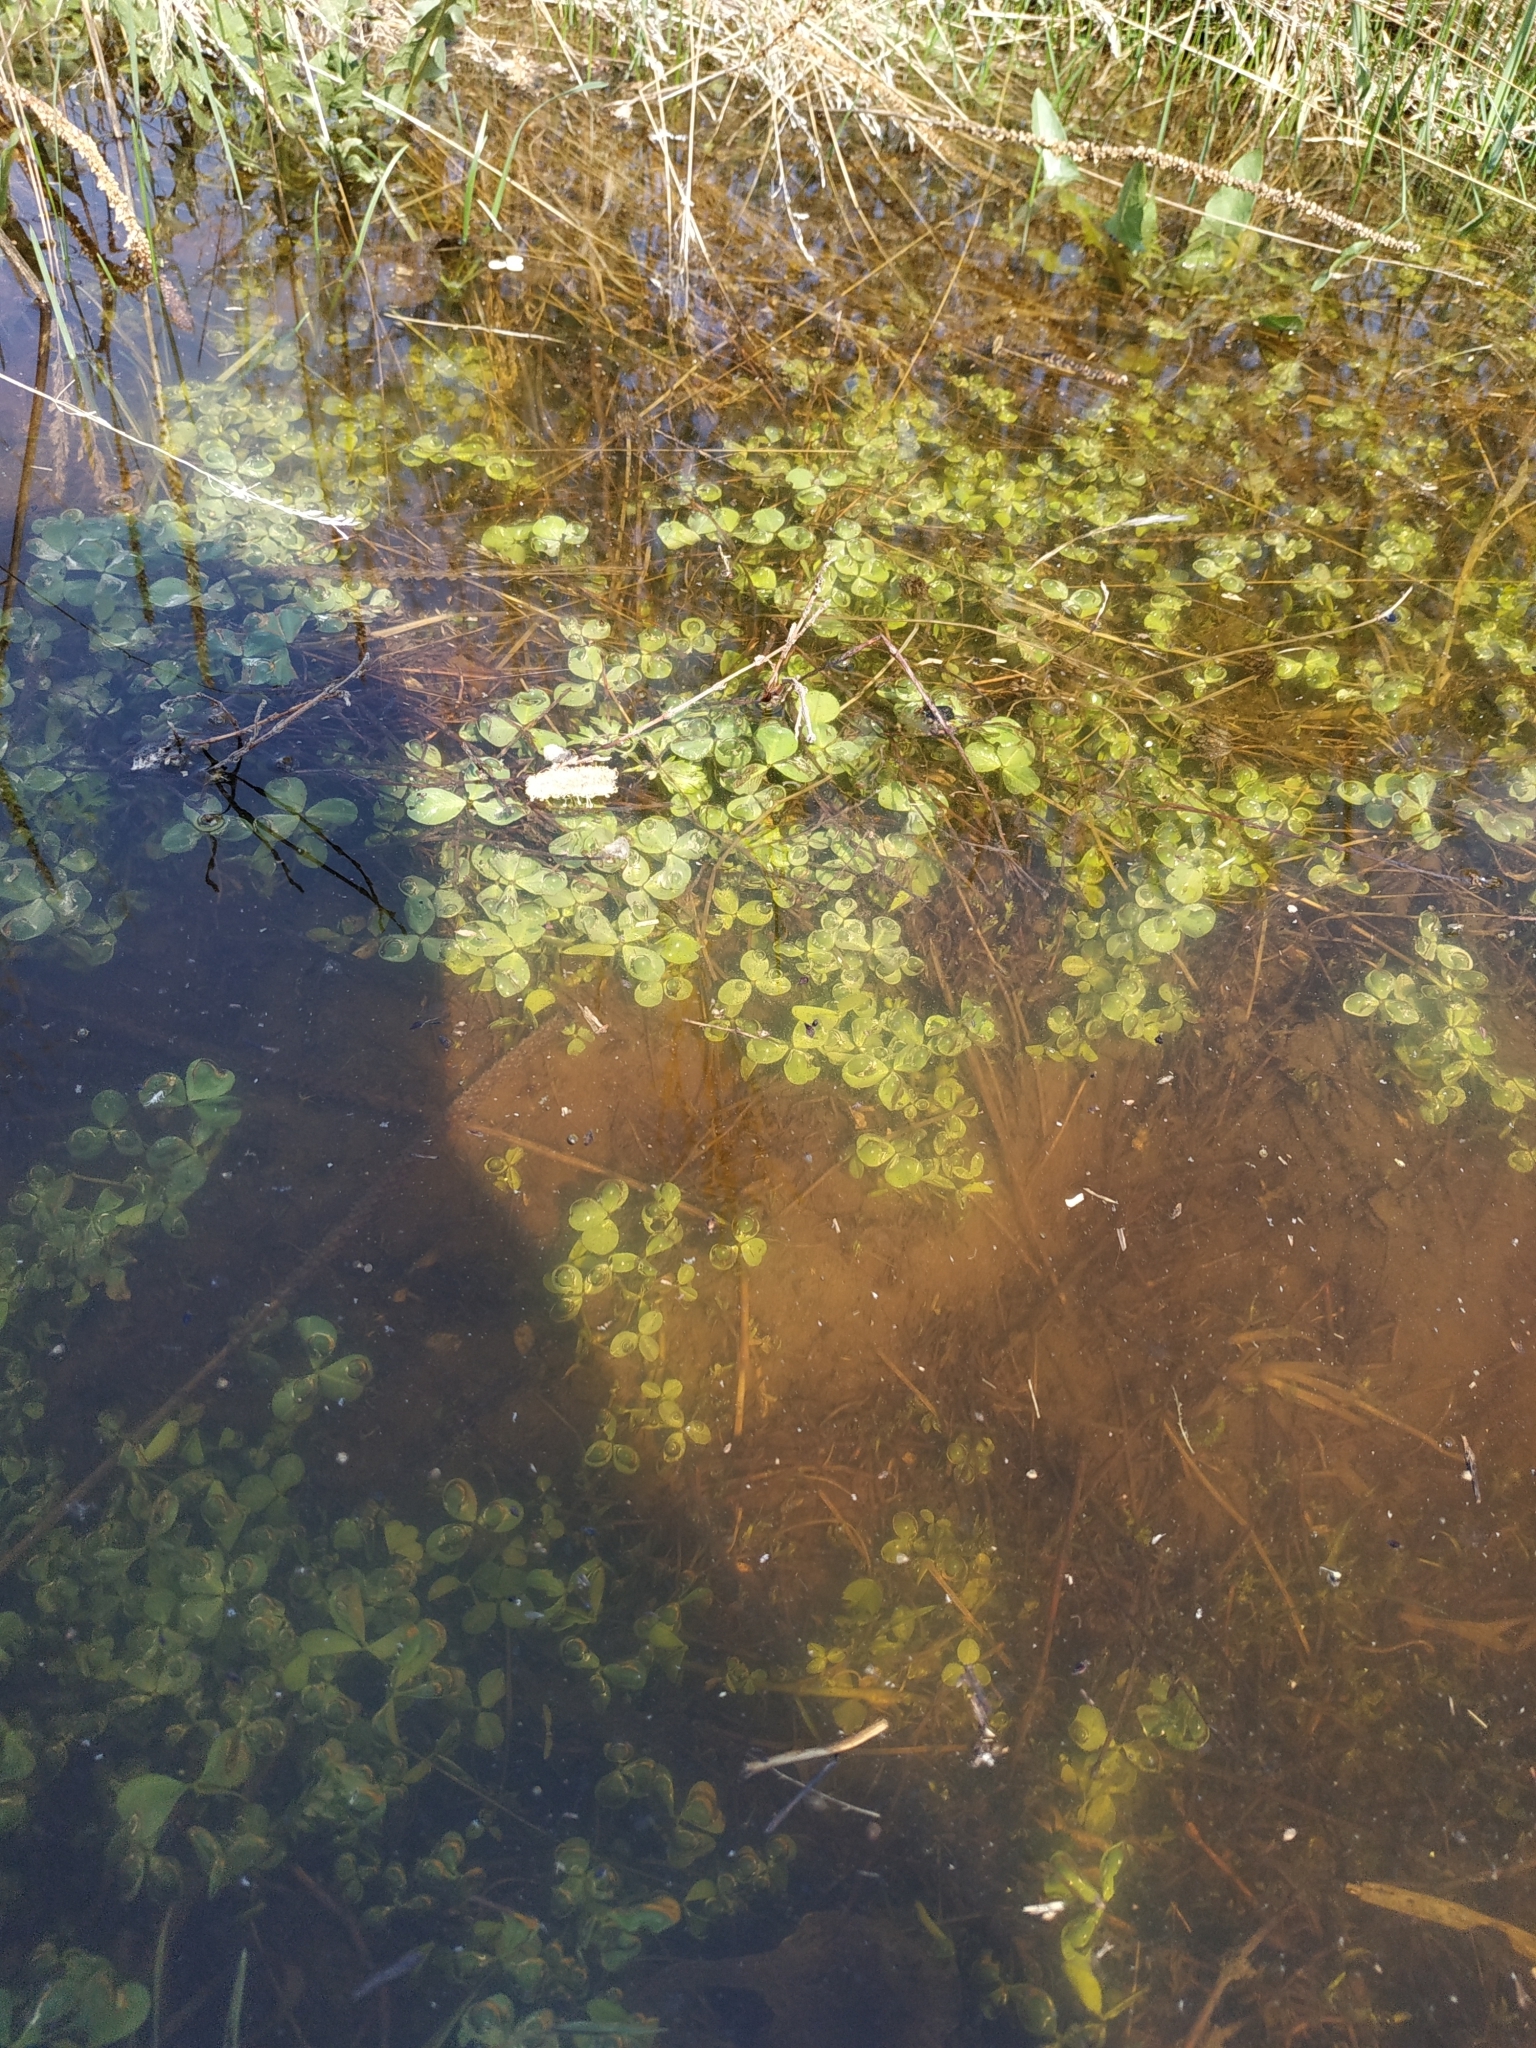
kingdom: Plantae
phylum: Tracheophyta
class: Magnoliopsida
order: Fabales
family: Fabaceae
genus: Trifolium
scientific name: Trifolium repens
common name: White clover
